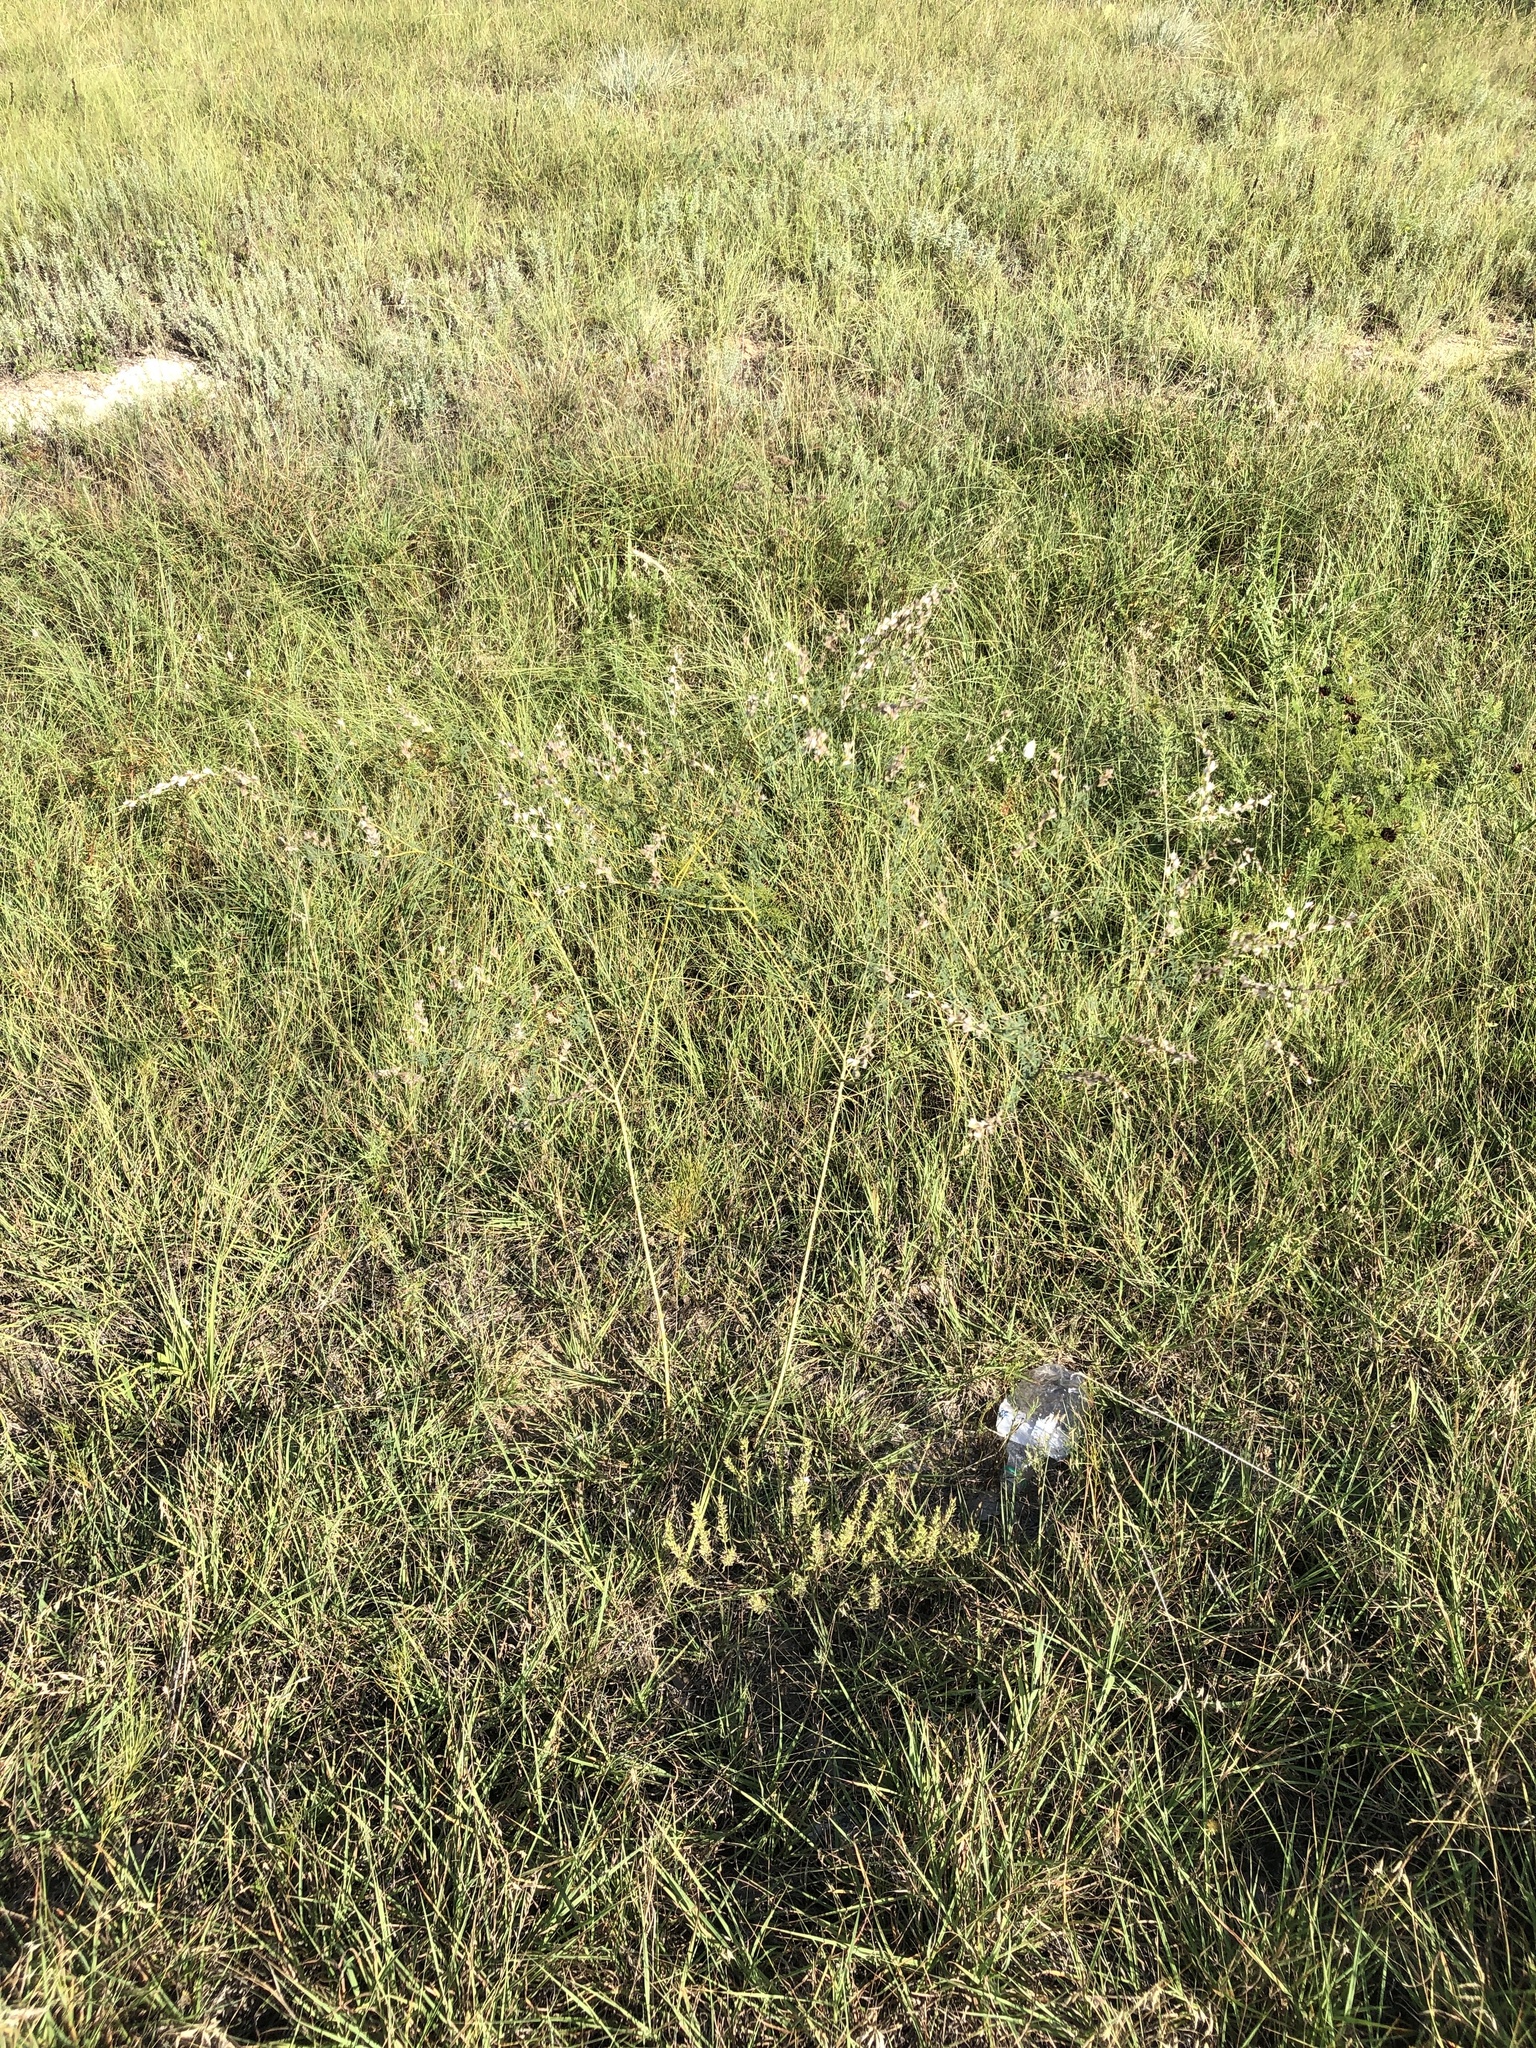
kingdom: Plantae
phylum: Tracheophyta
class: Magnoliopsida
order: Fabales
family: Fabaceae
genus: Dalea
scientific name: Dalea enneandra
